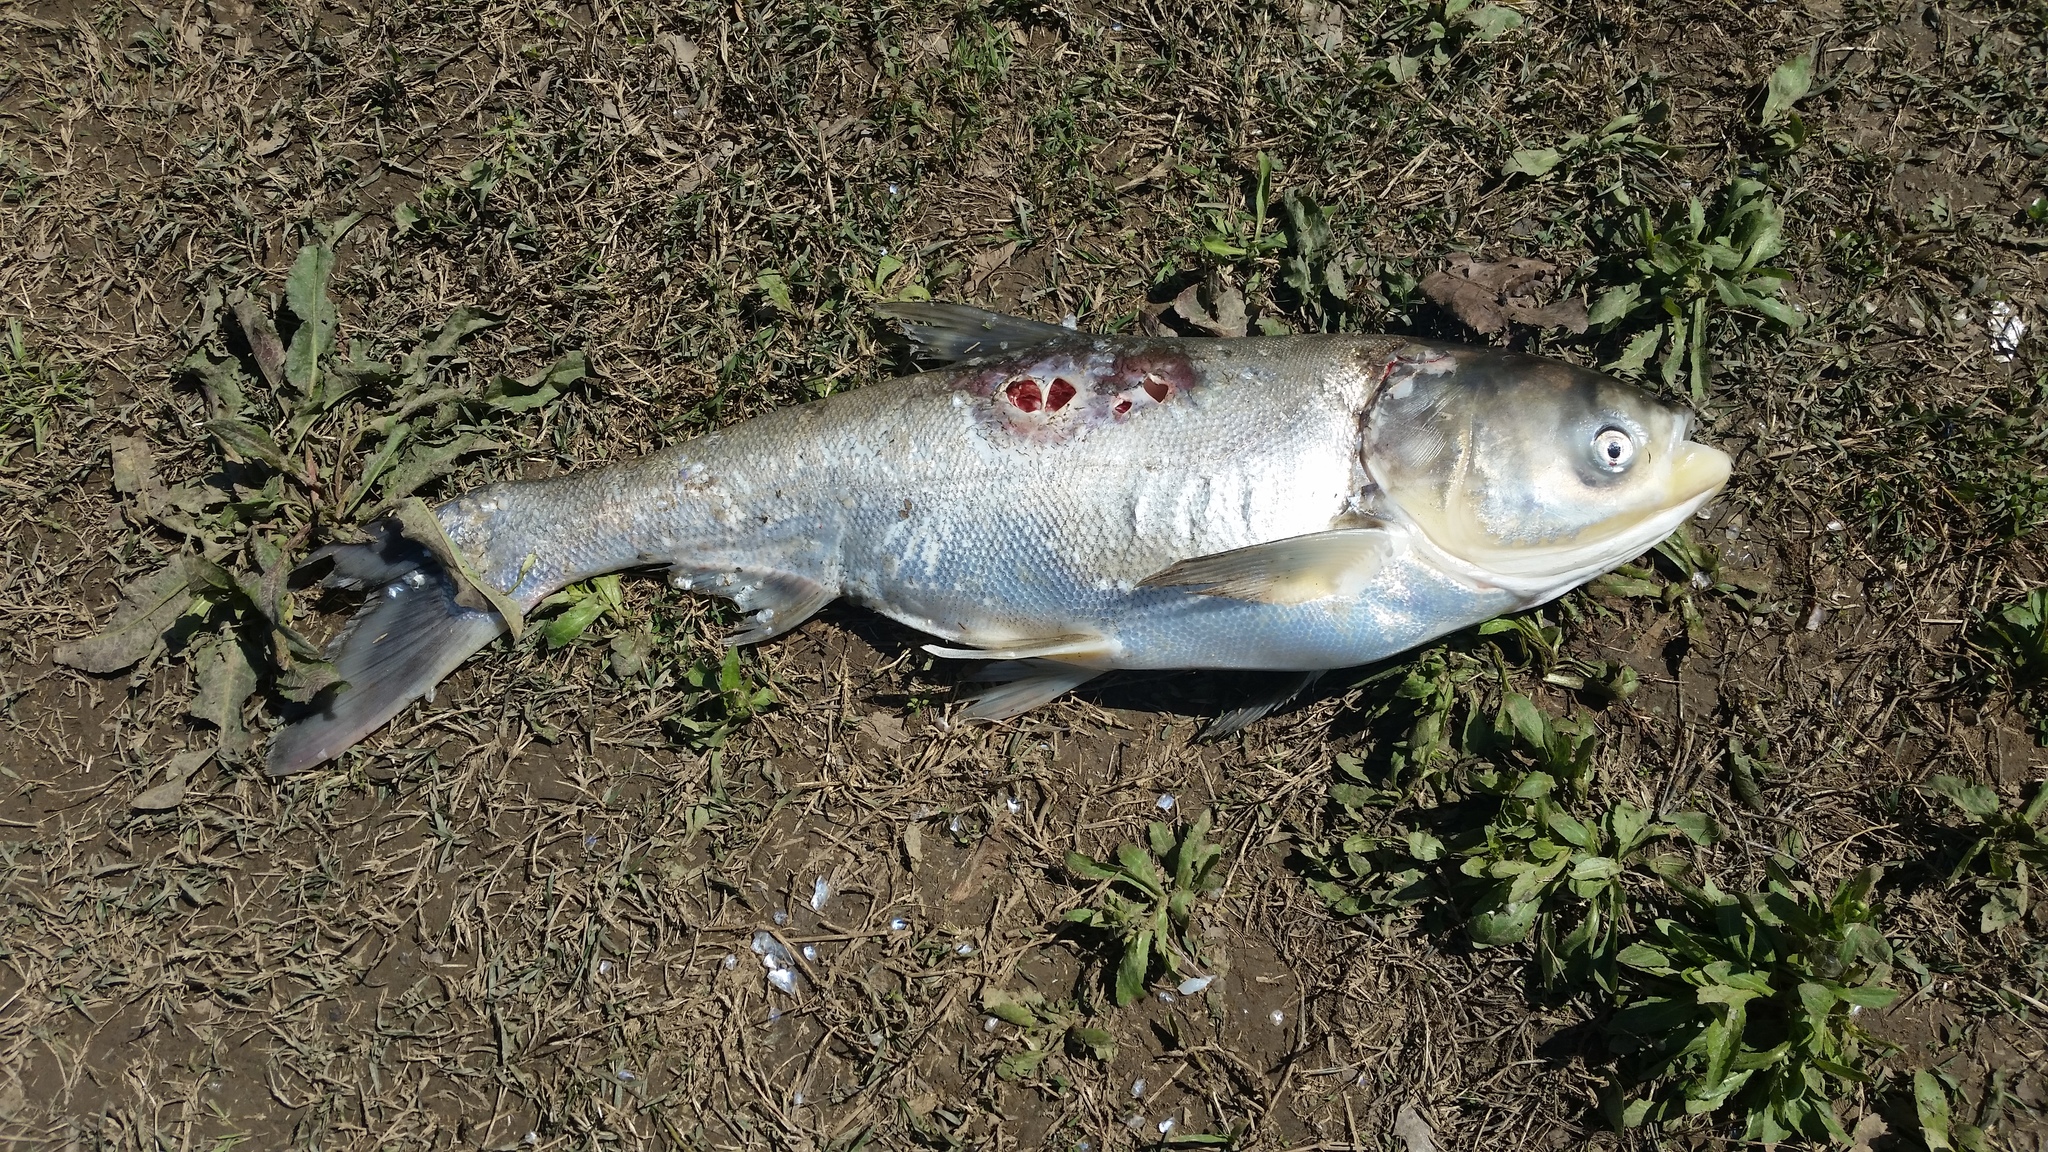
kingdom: Animalia
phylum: Chordata
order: Cypriniformes
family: Cyprinidae
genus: Hypophthalmichthys
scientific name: Hypophthalmichthys molitrix
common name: Silver carp
